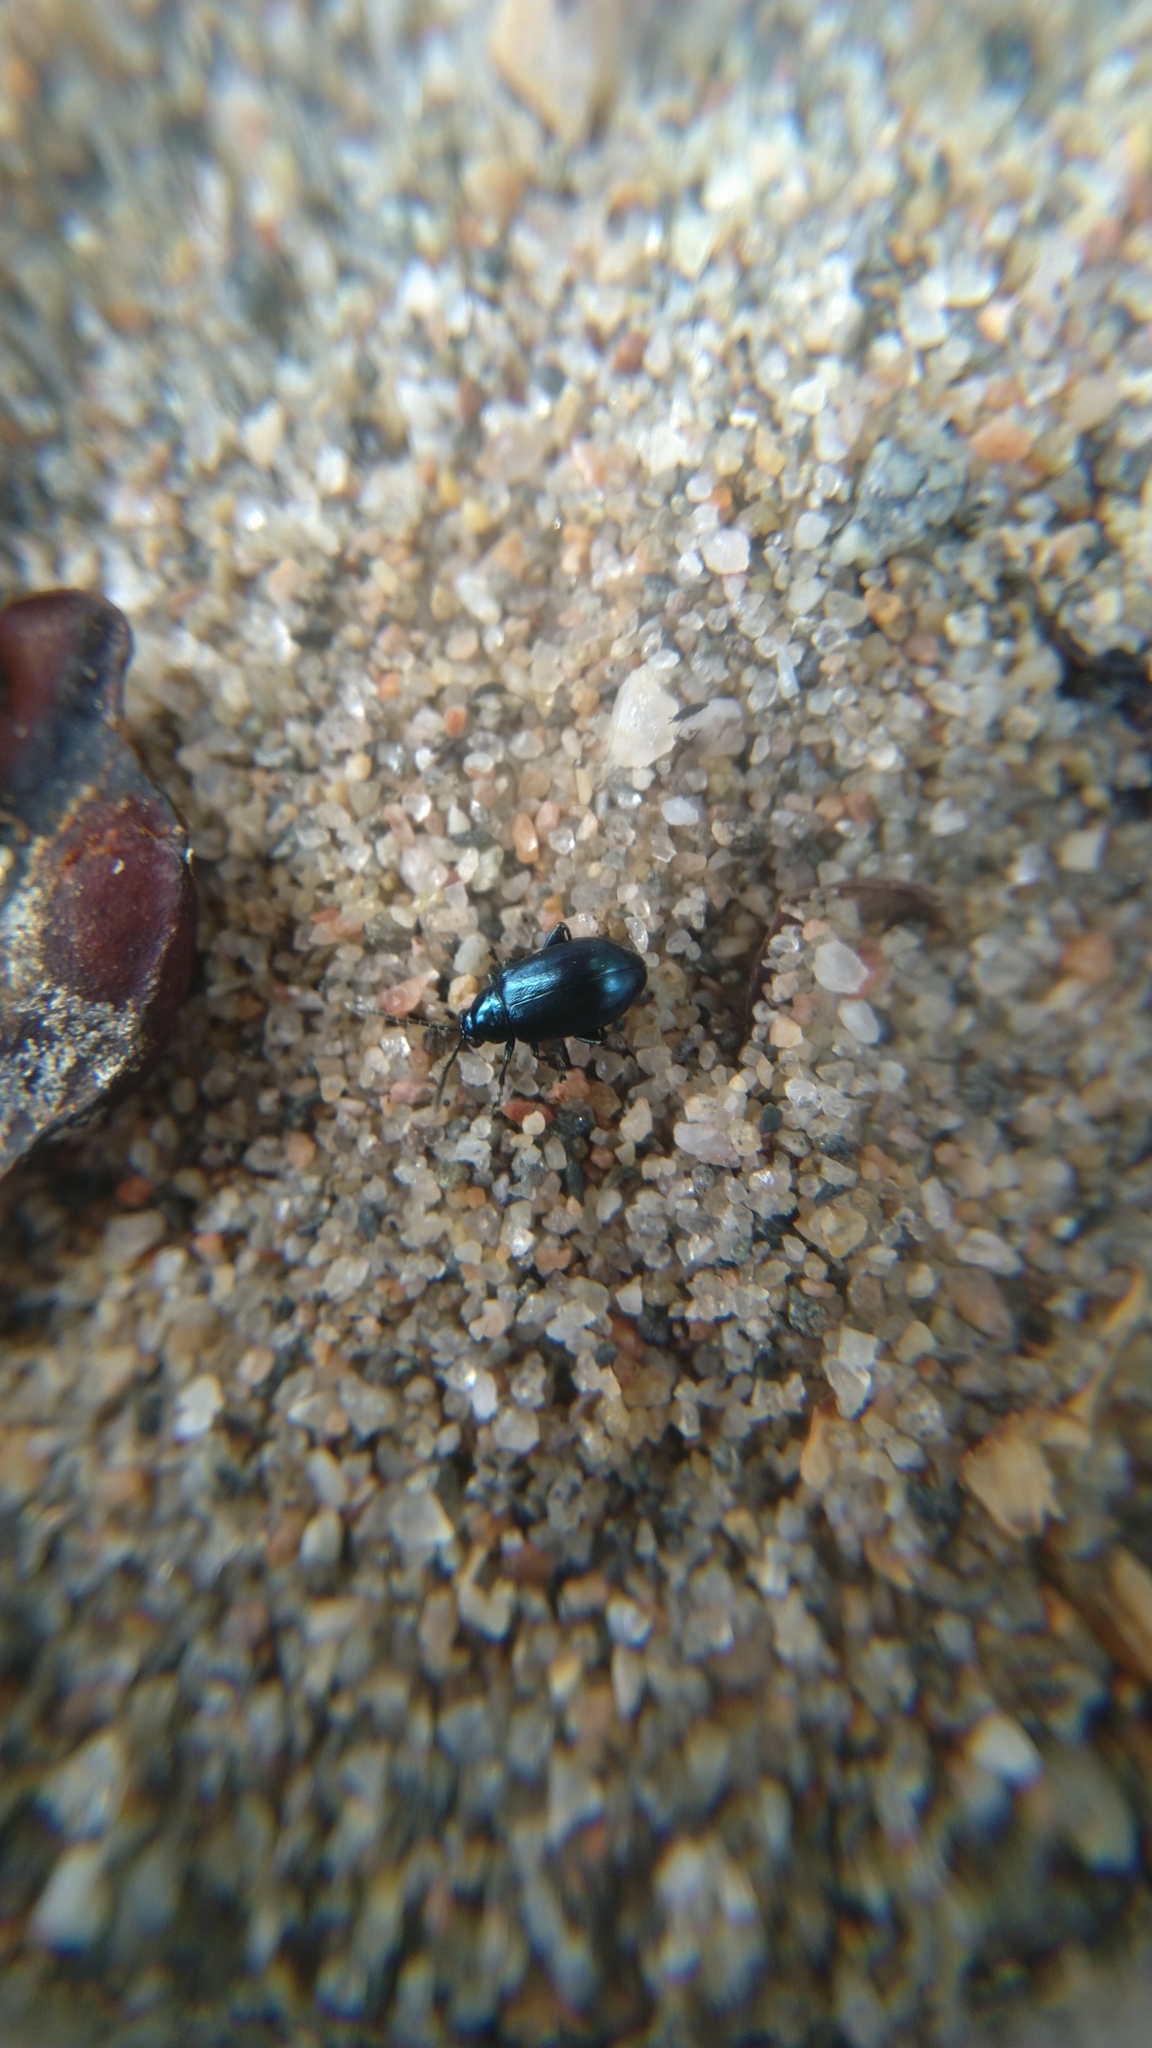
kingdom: Animalia
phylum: Arthropoda
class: Insecta
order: Coleoptera
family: Chrysomelidae
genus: Altica
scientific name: Altica
